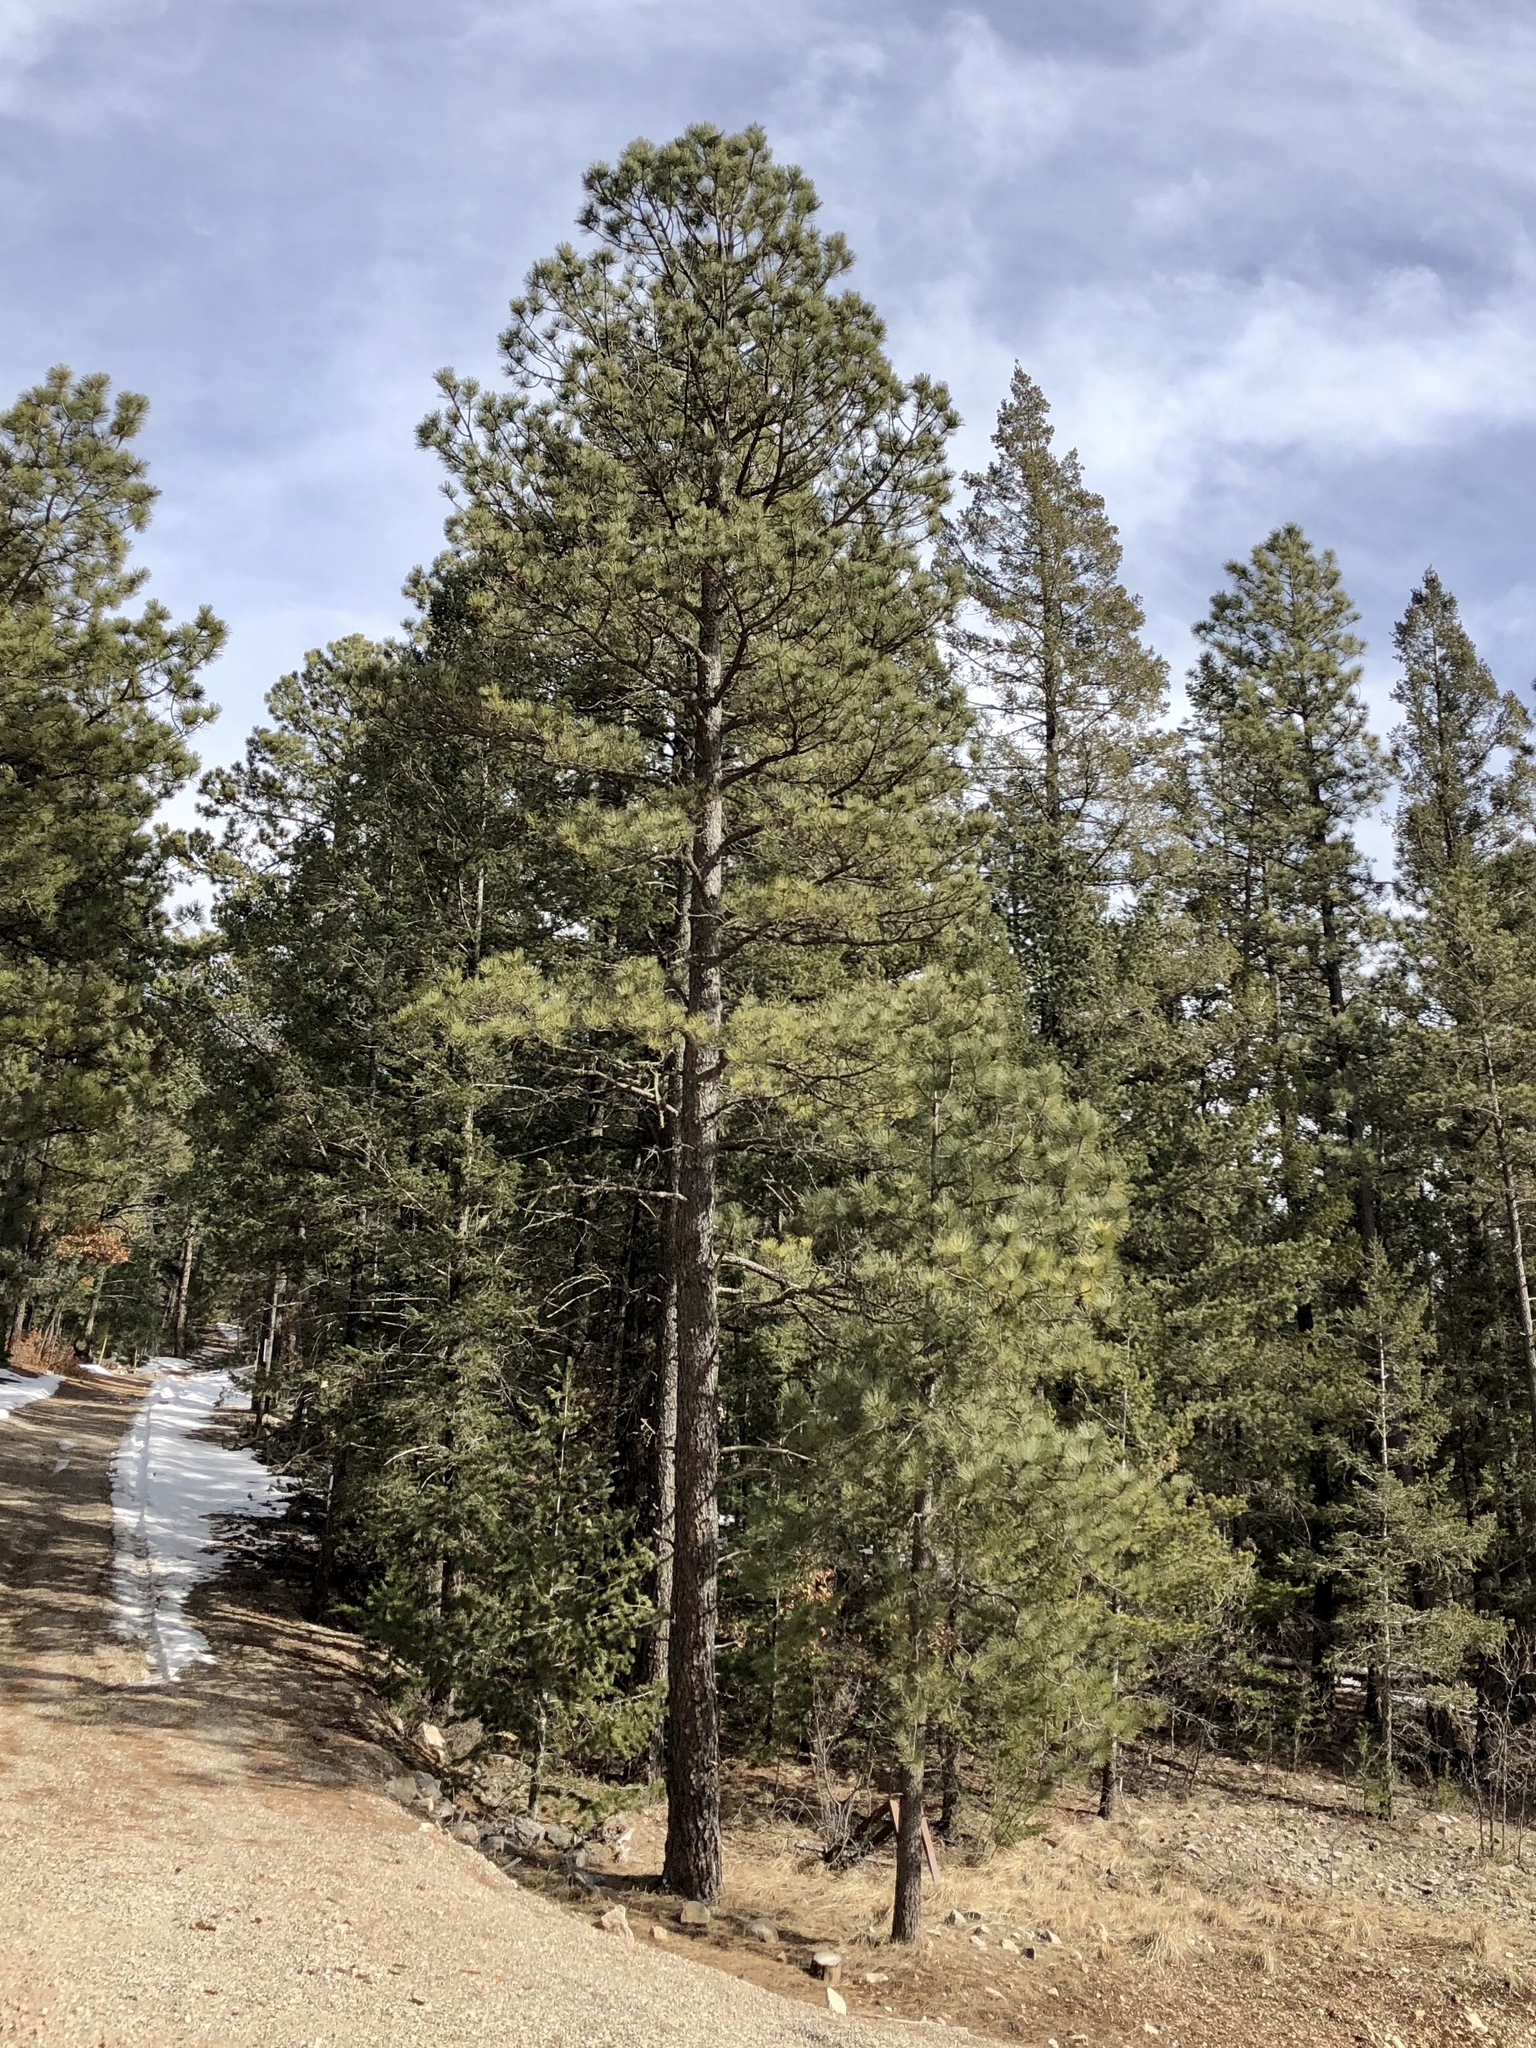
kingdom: Plantae
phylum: Tracheophyta
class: Pinopsida
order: Pinales
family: Pinaceae
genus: Pinus
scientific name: Pinus ponderosa
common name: Western yellow-pine
